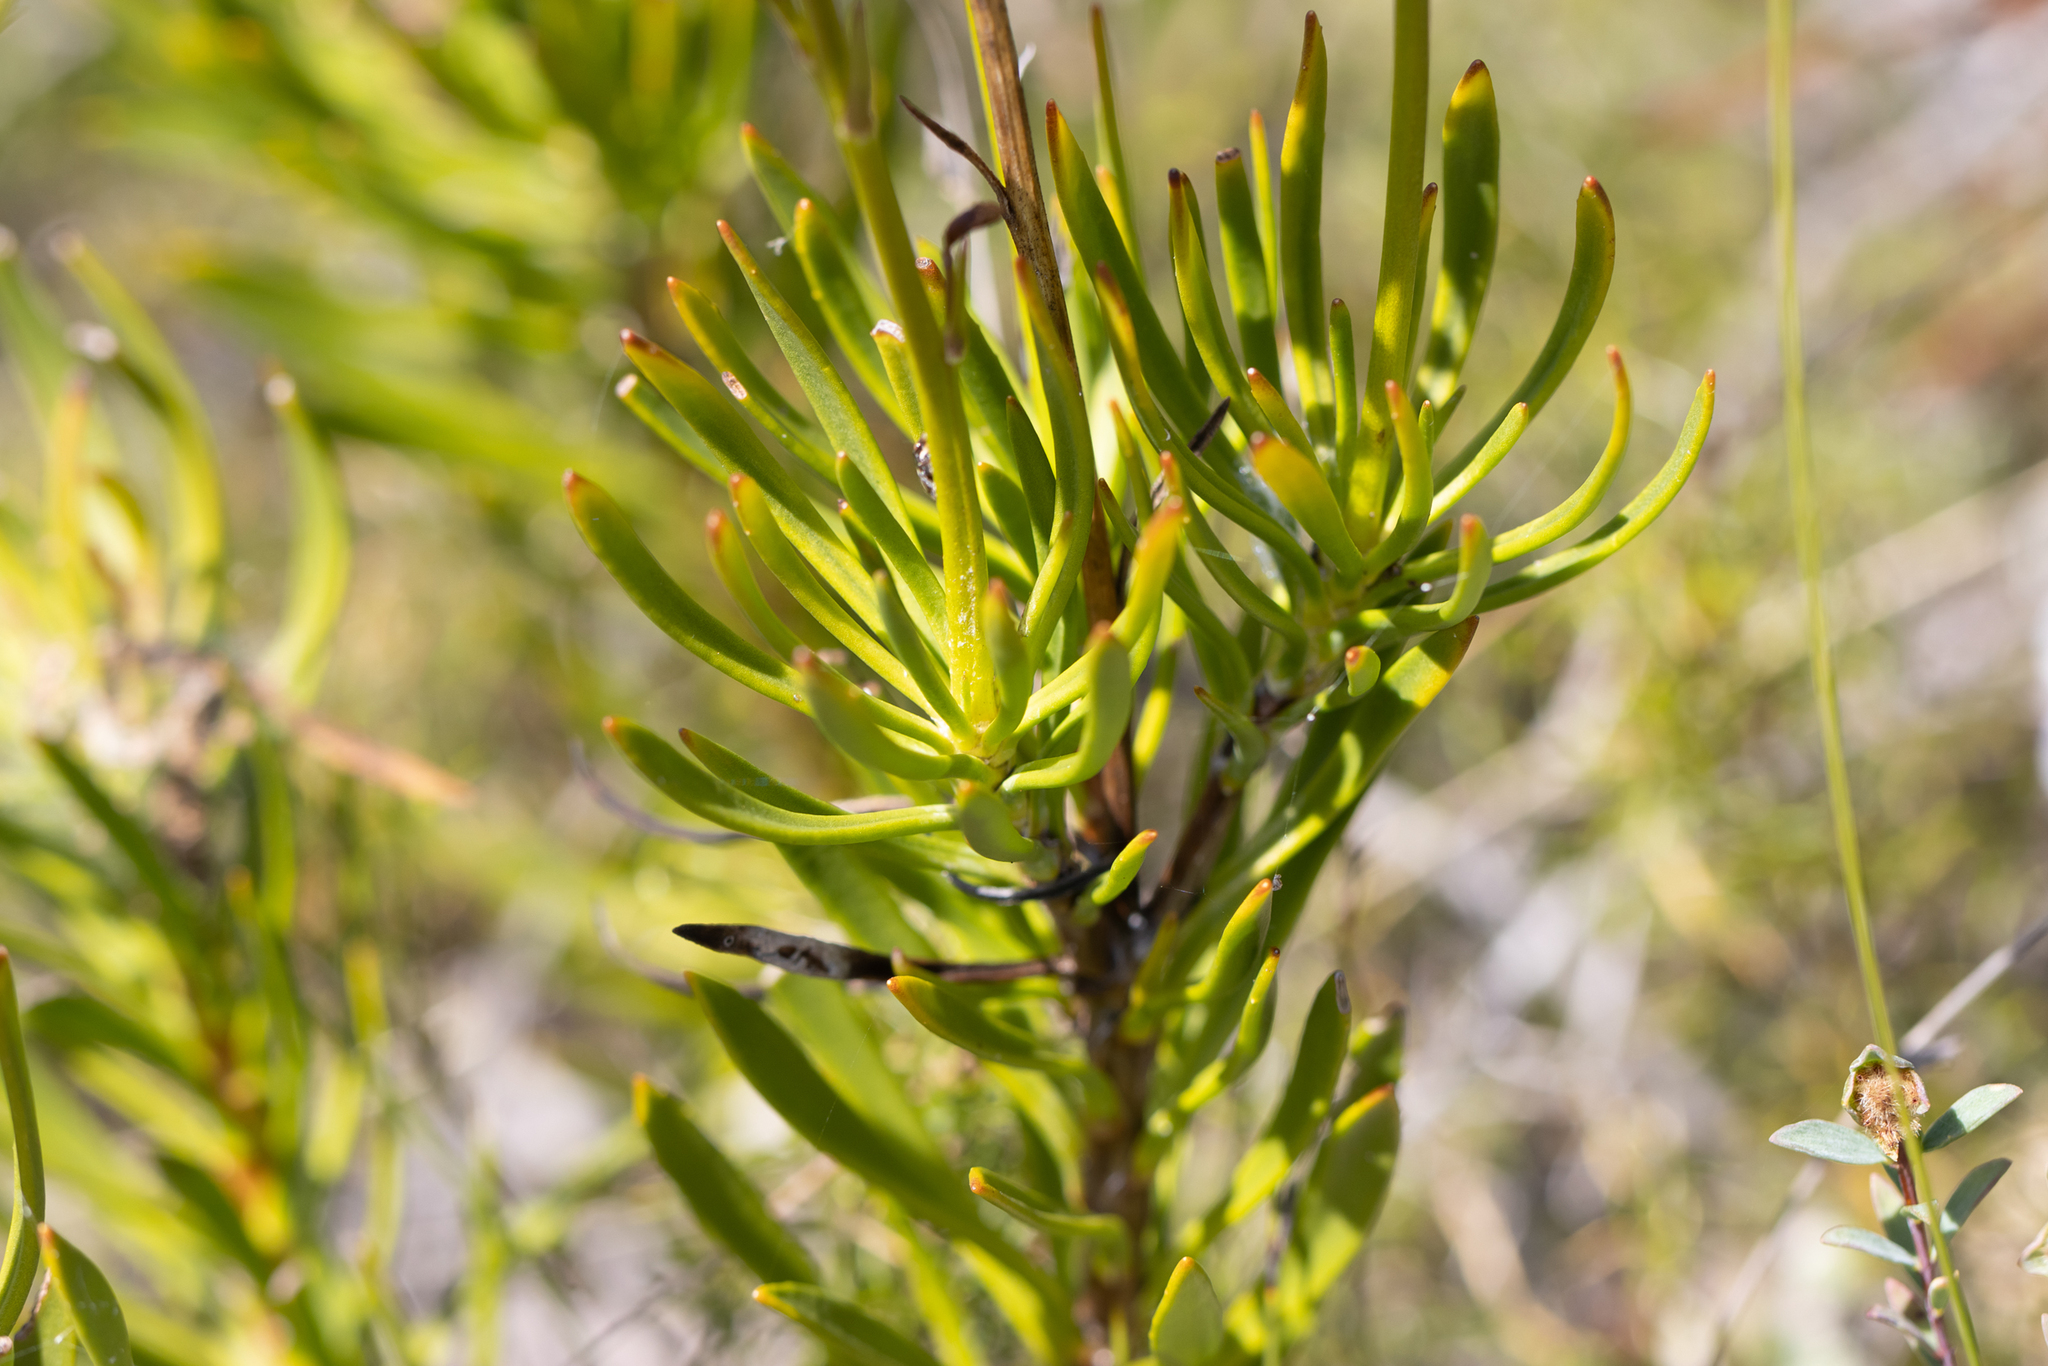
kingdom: Plantae
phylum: Tracheophyta
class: Magnoliopsida
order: Asterales
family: Goodeniaceae
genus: Goodenia
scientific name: Goodenia scapigera
